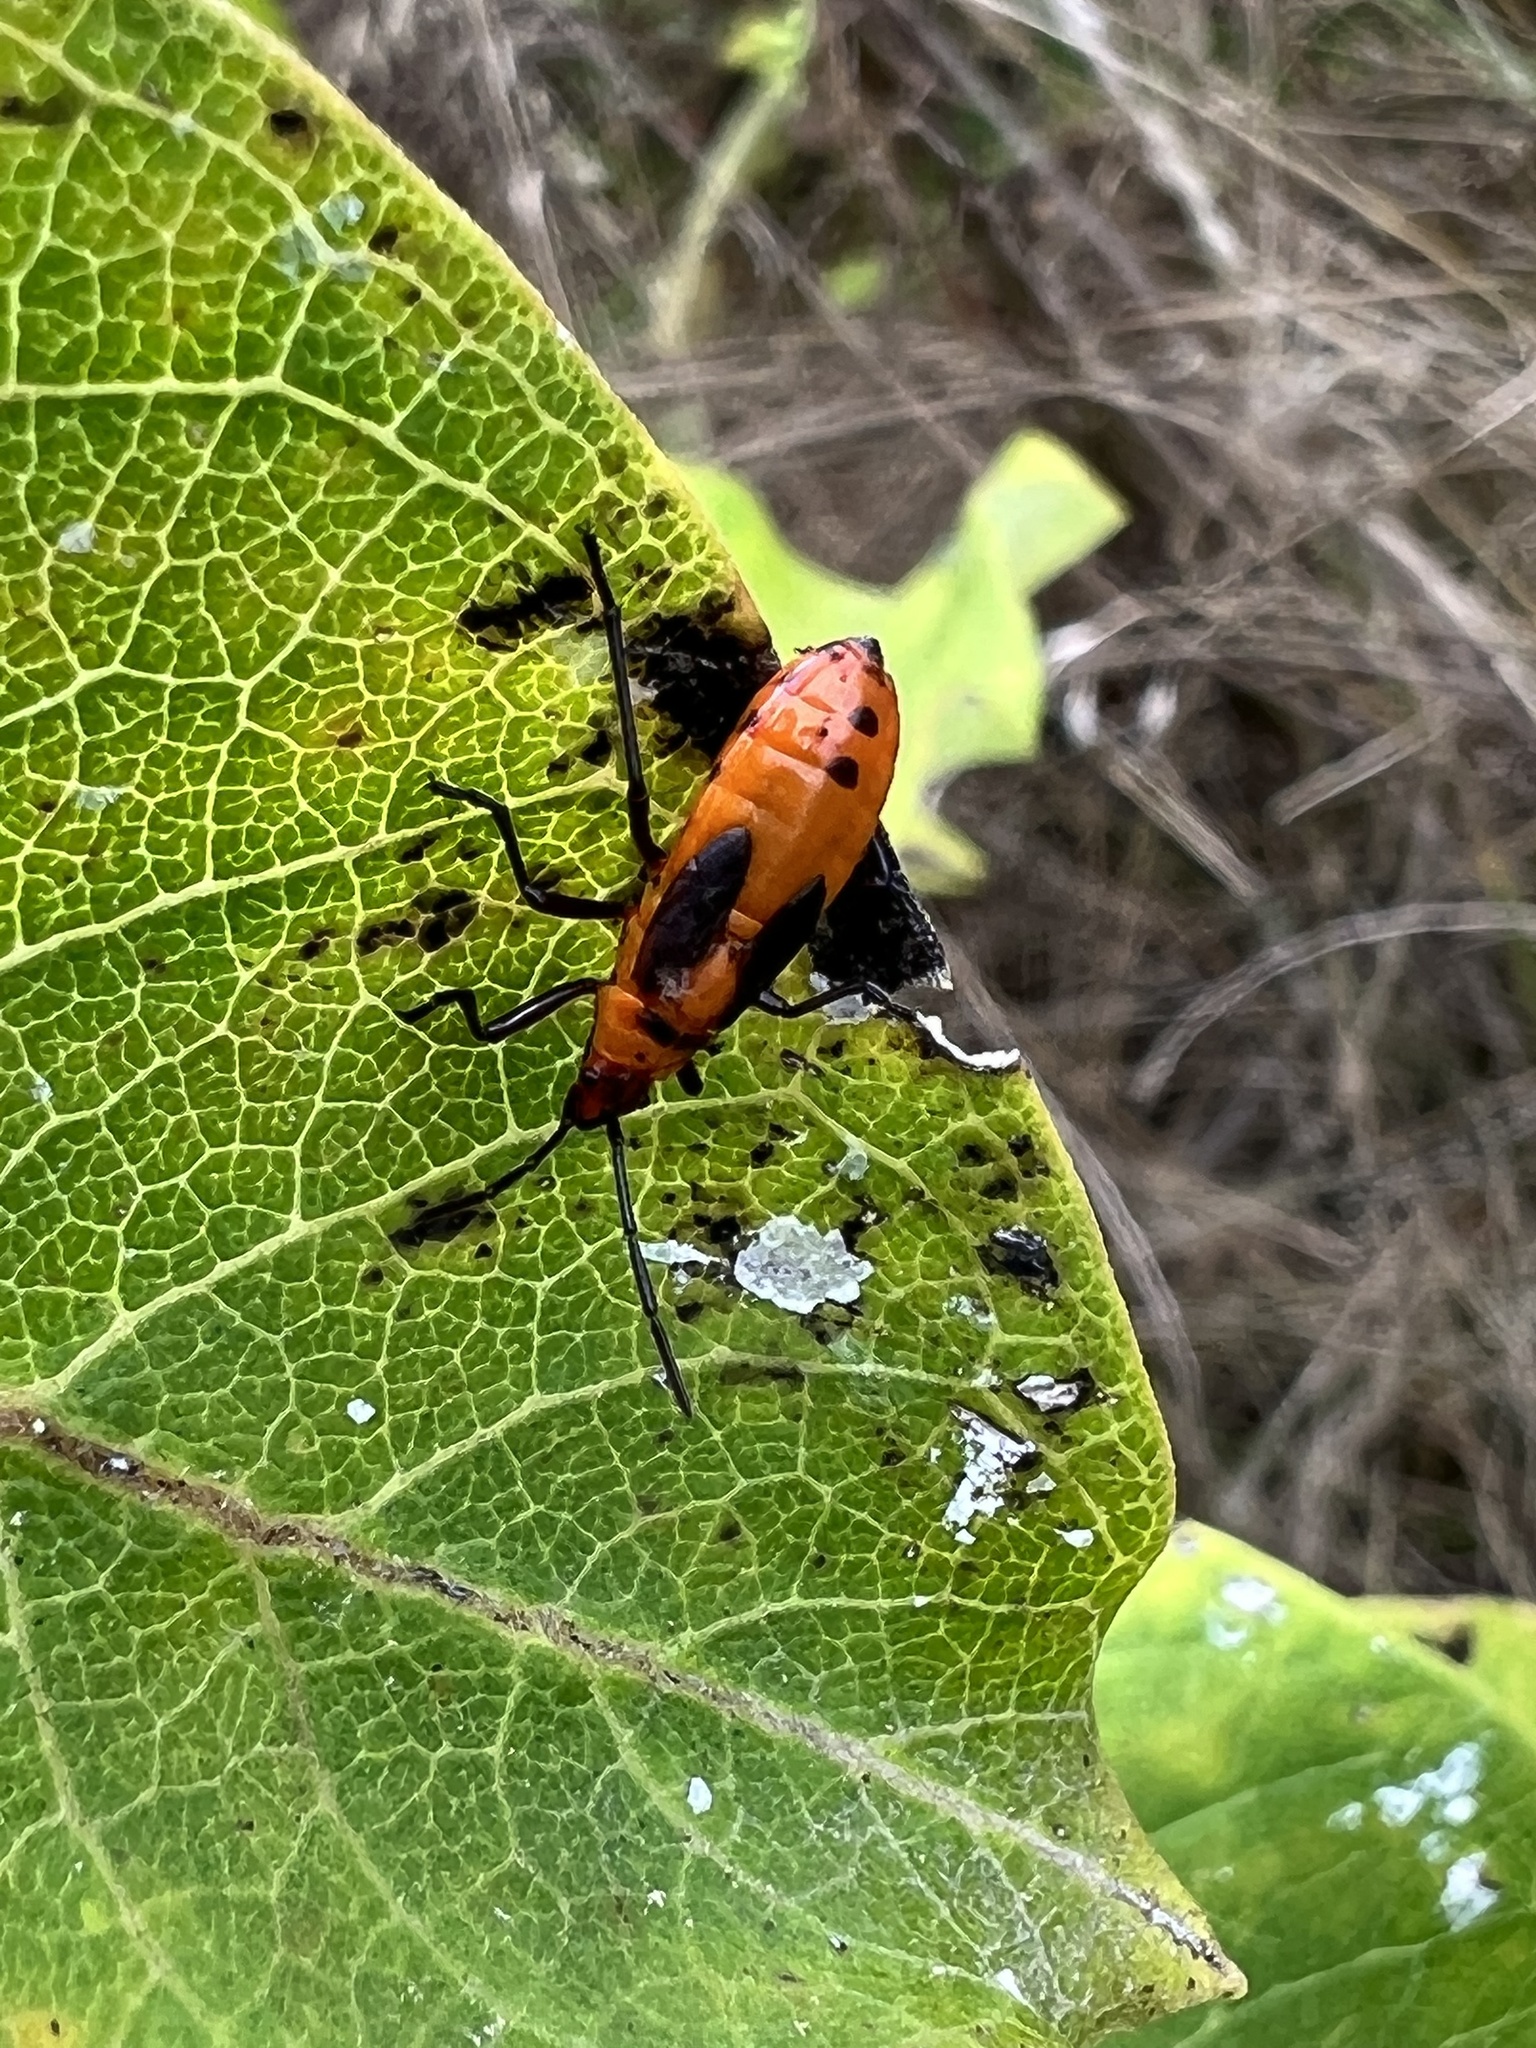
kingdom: Animalia
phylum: Arthropoda
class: Insecta
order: Hemiptera
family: Lygaeidae
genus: Oncopeltus
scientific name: Oncopeltus fasciatus
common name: Large milkweed bug
